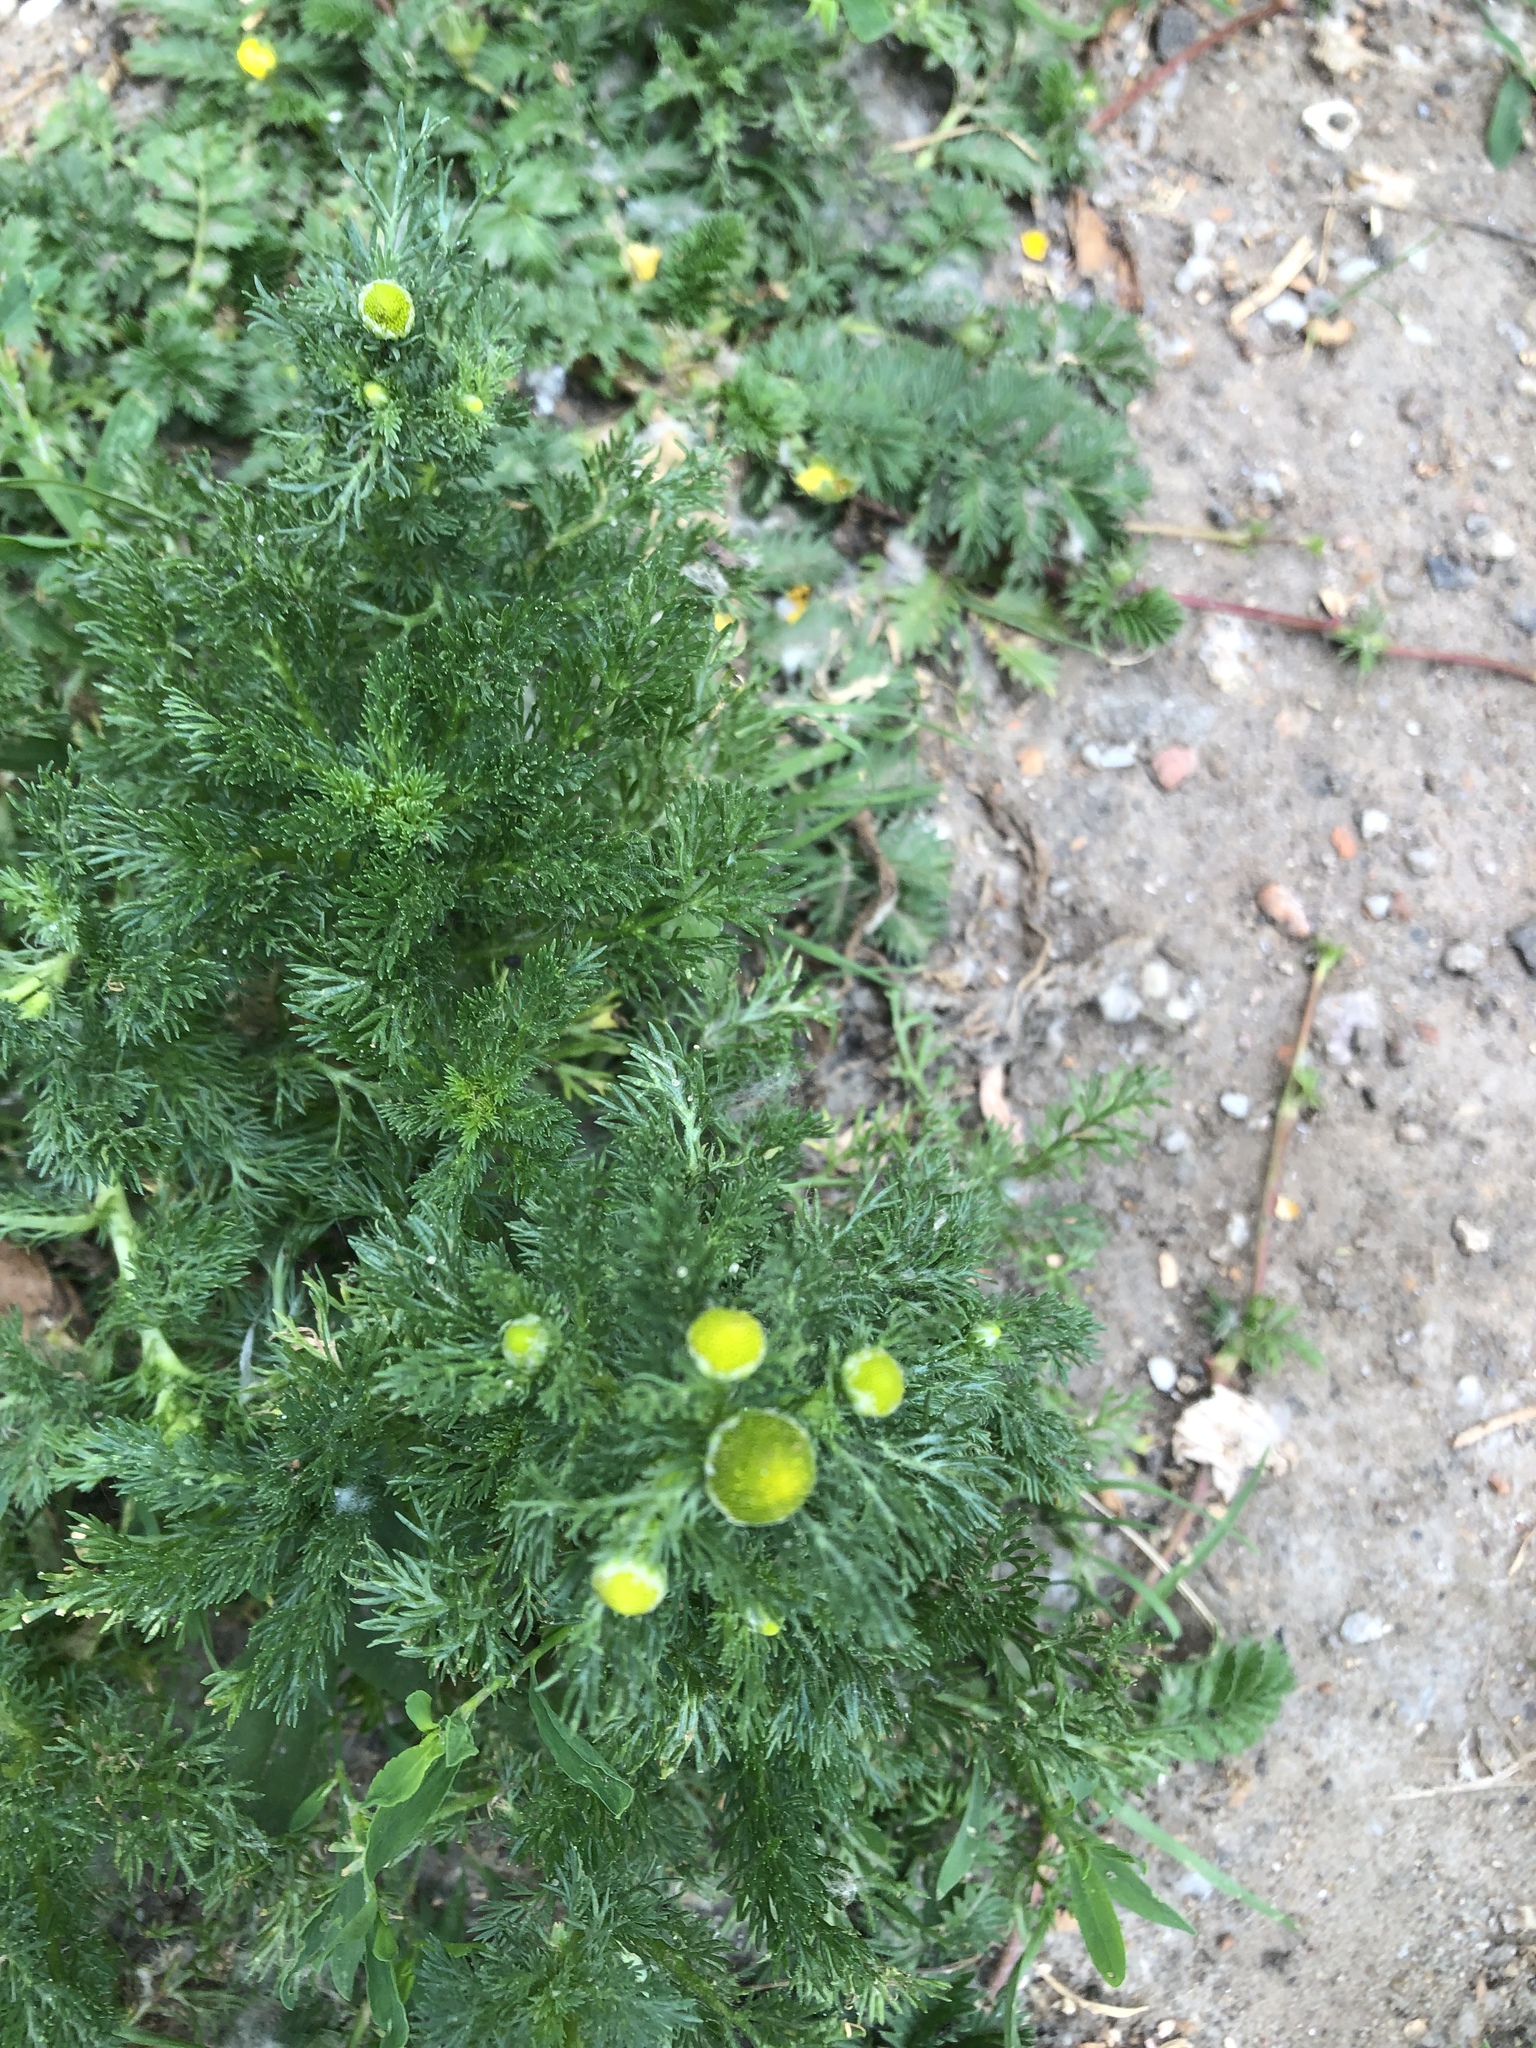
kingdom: Plantae
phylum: Tracheophyta
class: Magnoliopsida
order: Asterales
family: Asteraceae
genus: Matricaria
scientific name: Matricaria discoidea
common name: Disc mayweed
